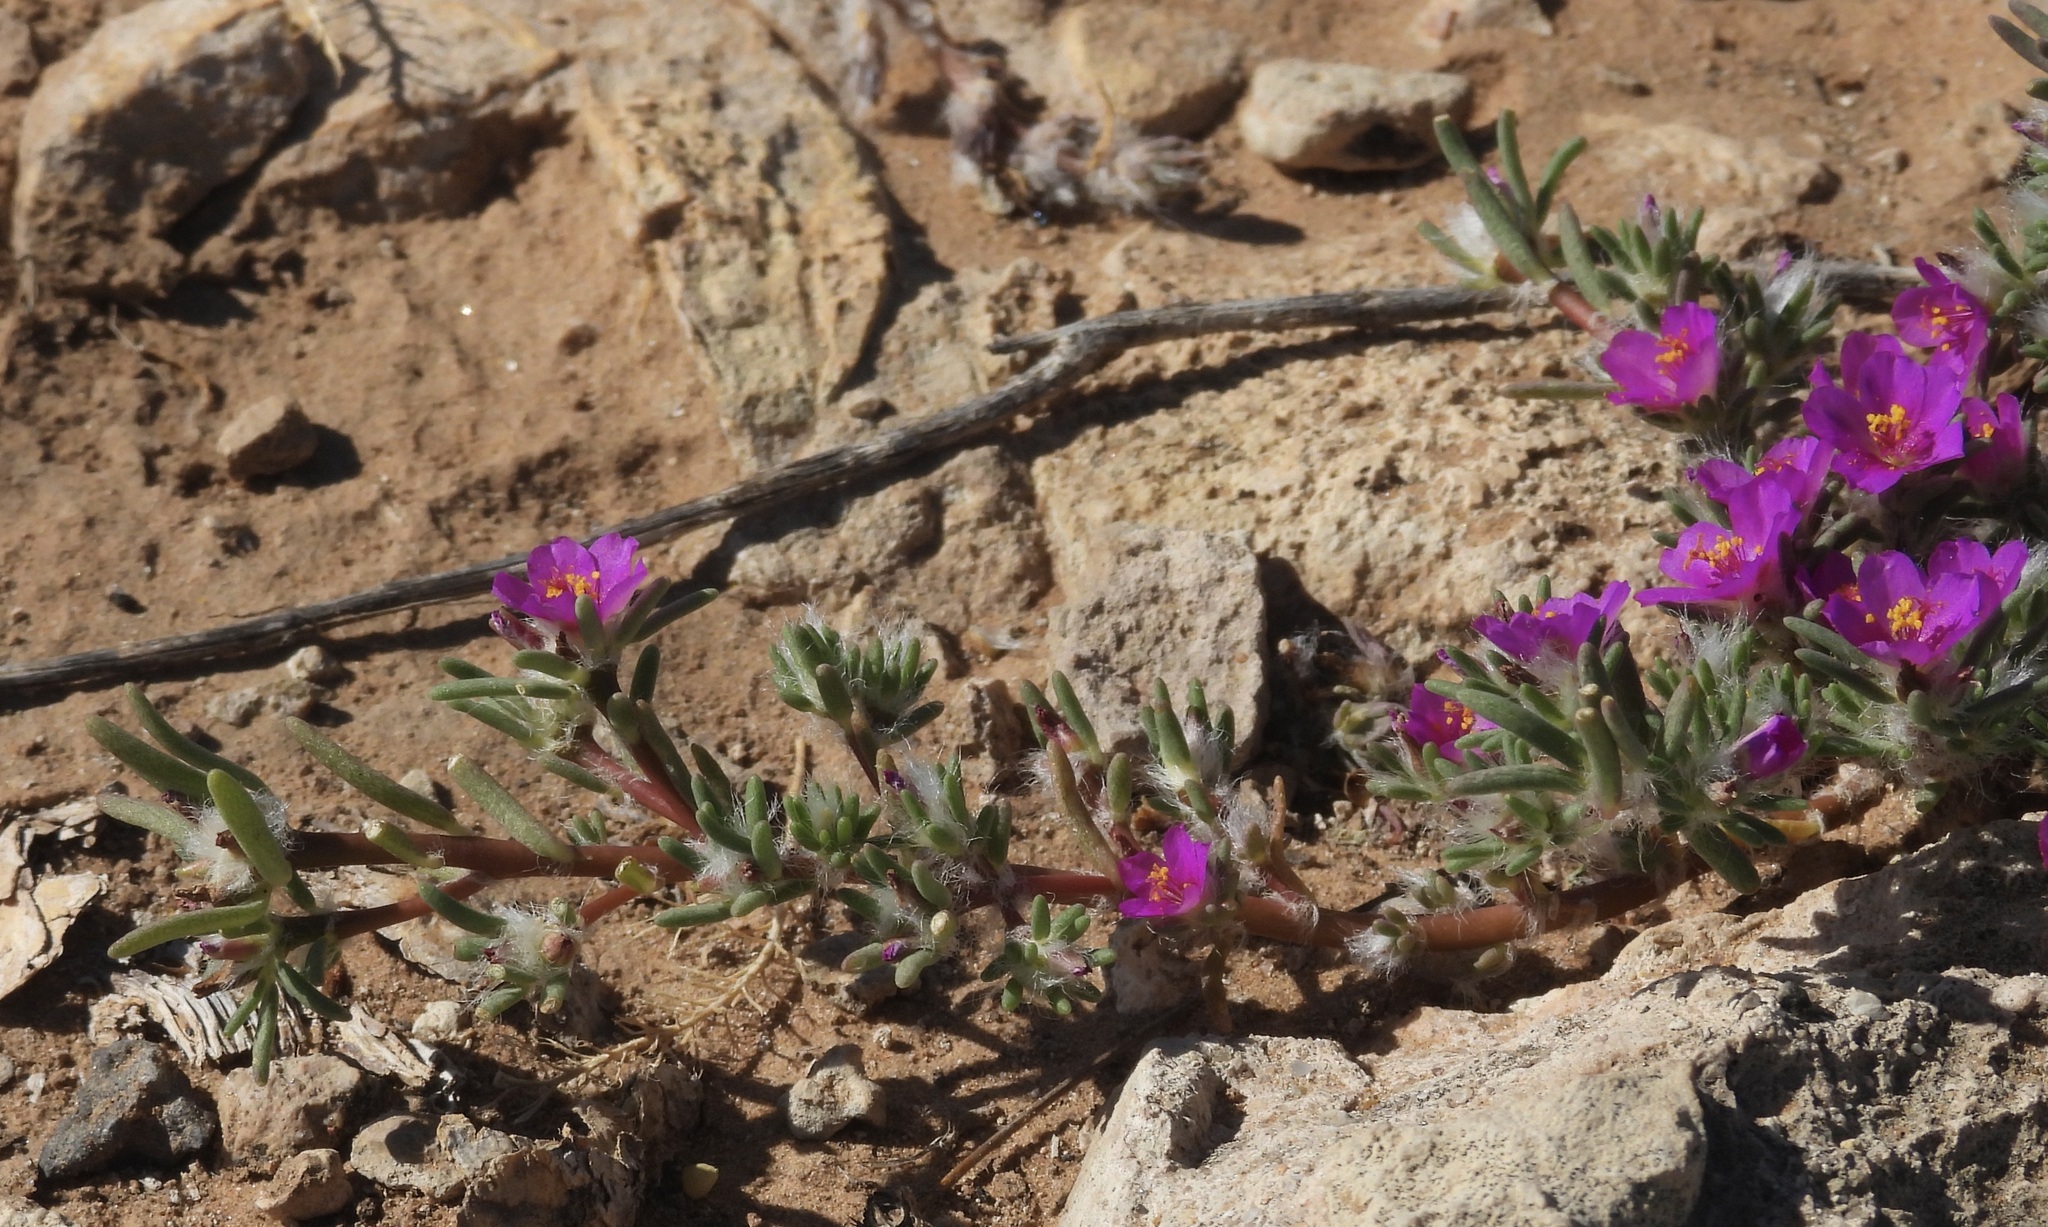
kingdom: Plantae
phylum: Tracheophyta
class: Magnoliopsida
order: Caryophyllales
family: Portulacaceae
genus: Portulaca
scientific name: Portulaca pilosa
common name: Kiss me quick
